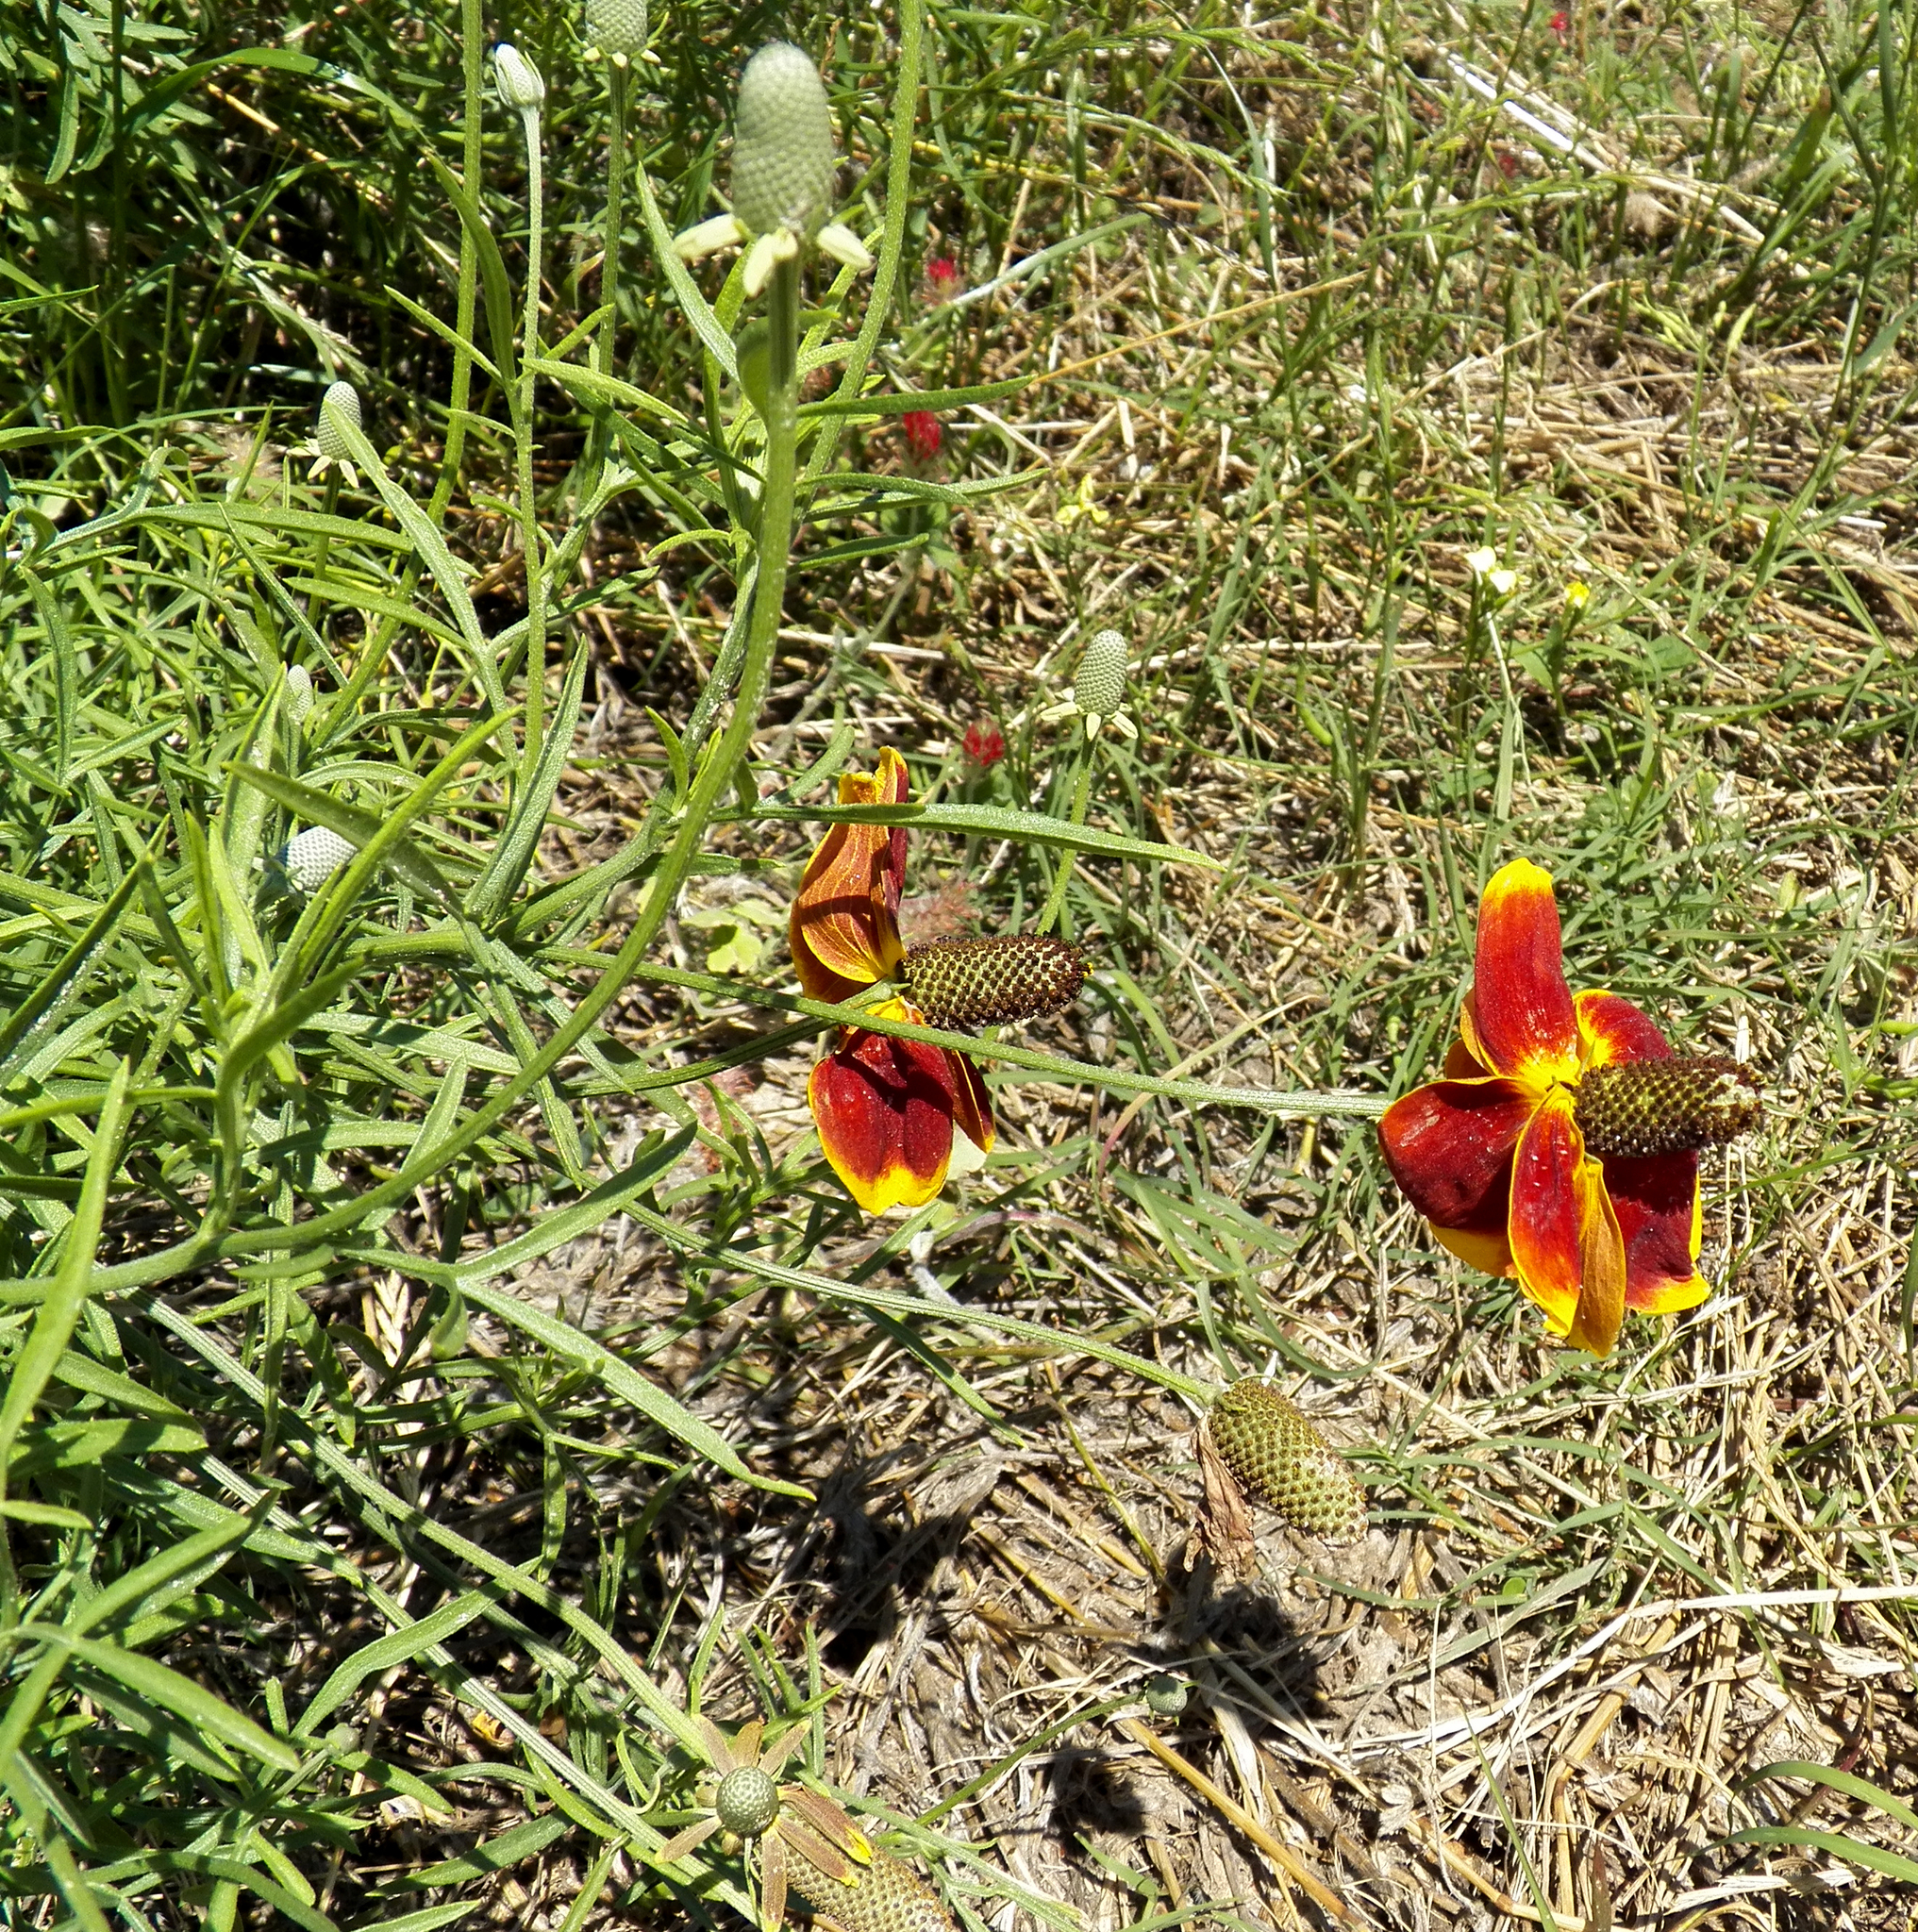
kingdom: Plantae
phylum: Tracheophyta
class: Magnoliopsida
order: Asterales
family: Asteraceae
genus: Ratibida
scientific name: Ratibida columnifera
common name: Prairie coneflower
